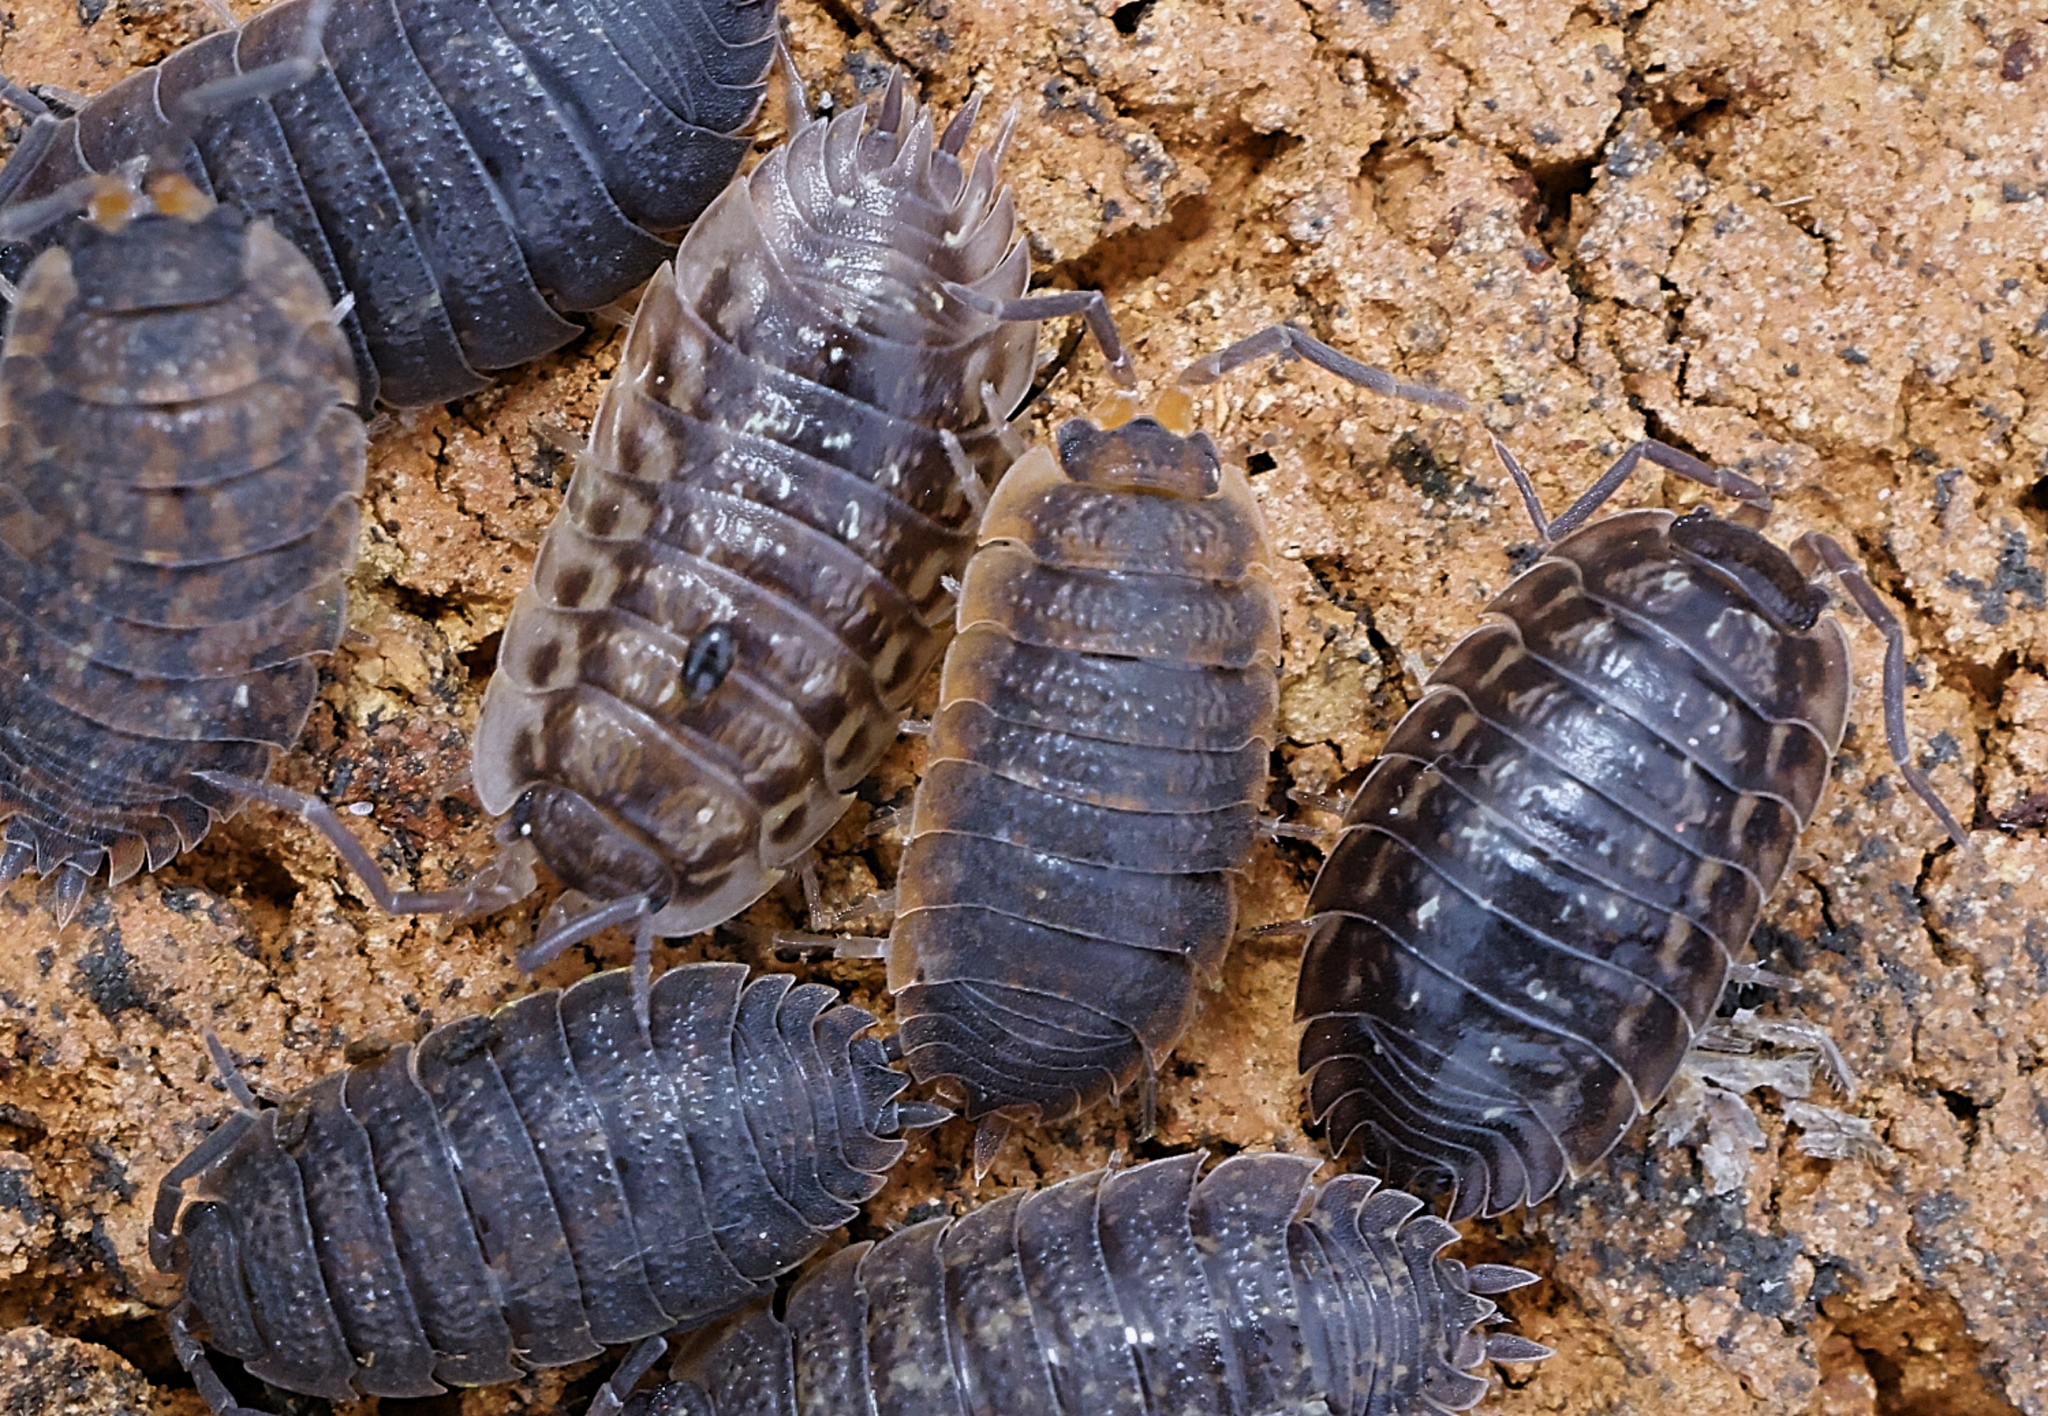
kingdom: Animalia
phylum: Arthropoda
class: Malacostraca
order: Isopoda
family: Oniscidae
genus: Oniscus
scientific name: Oniscus asellus
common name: Common shiny woodlouse
